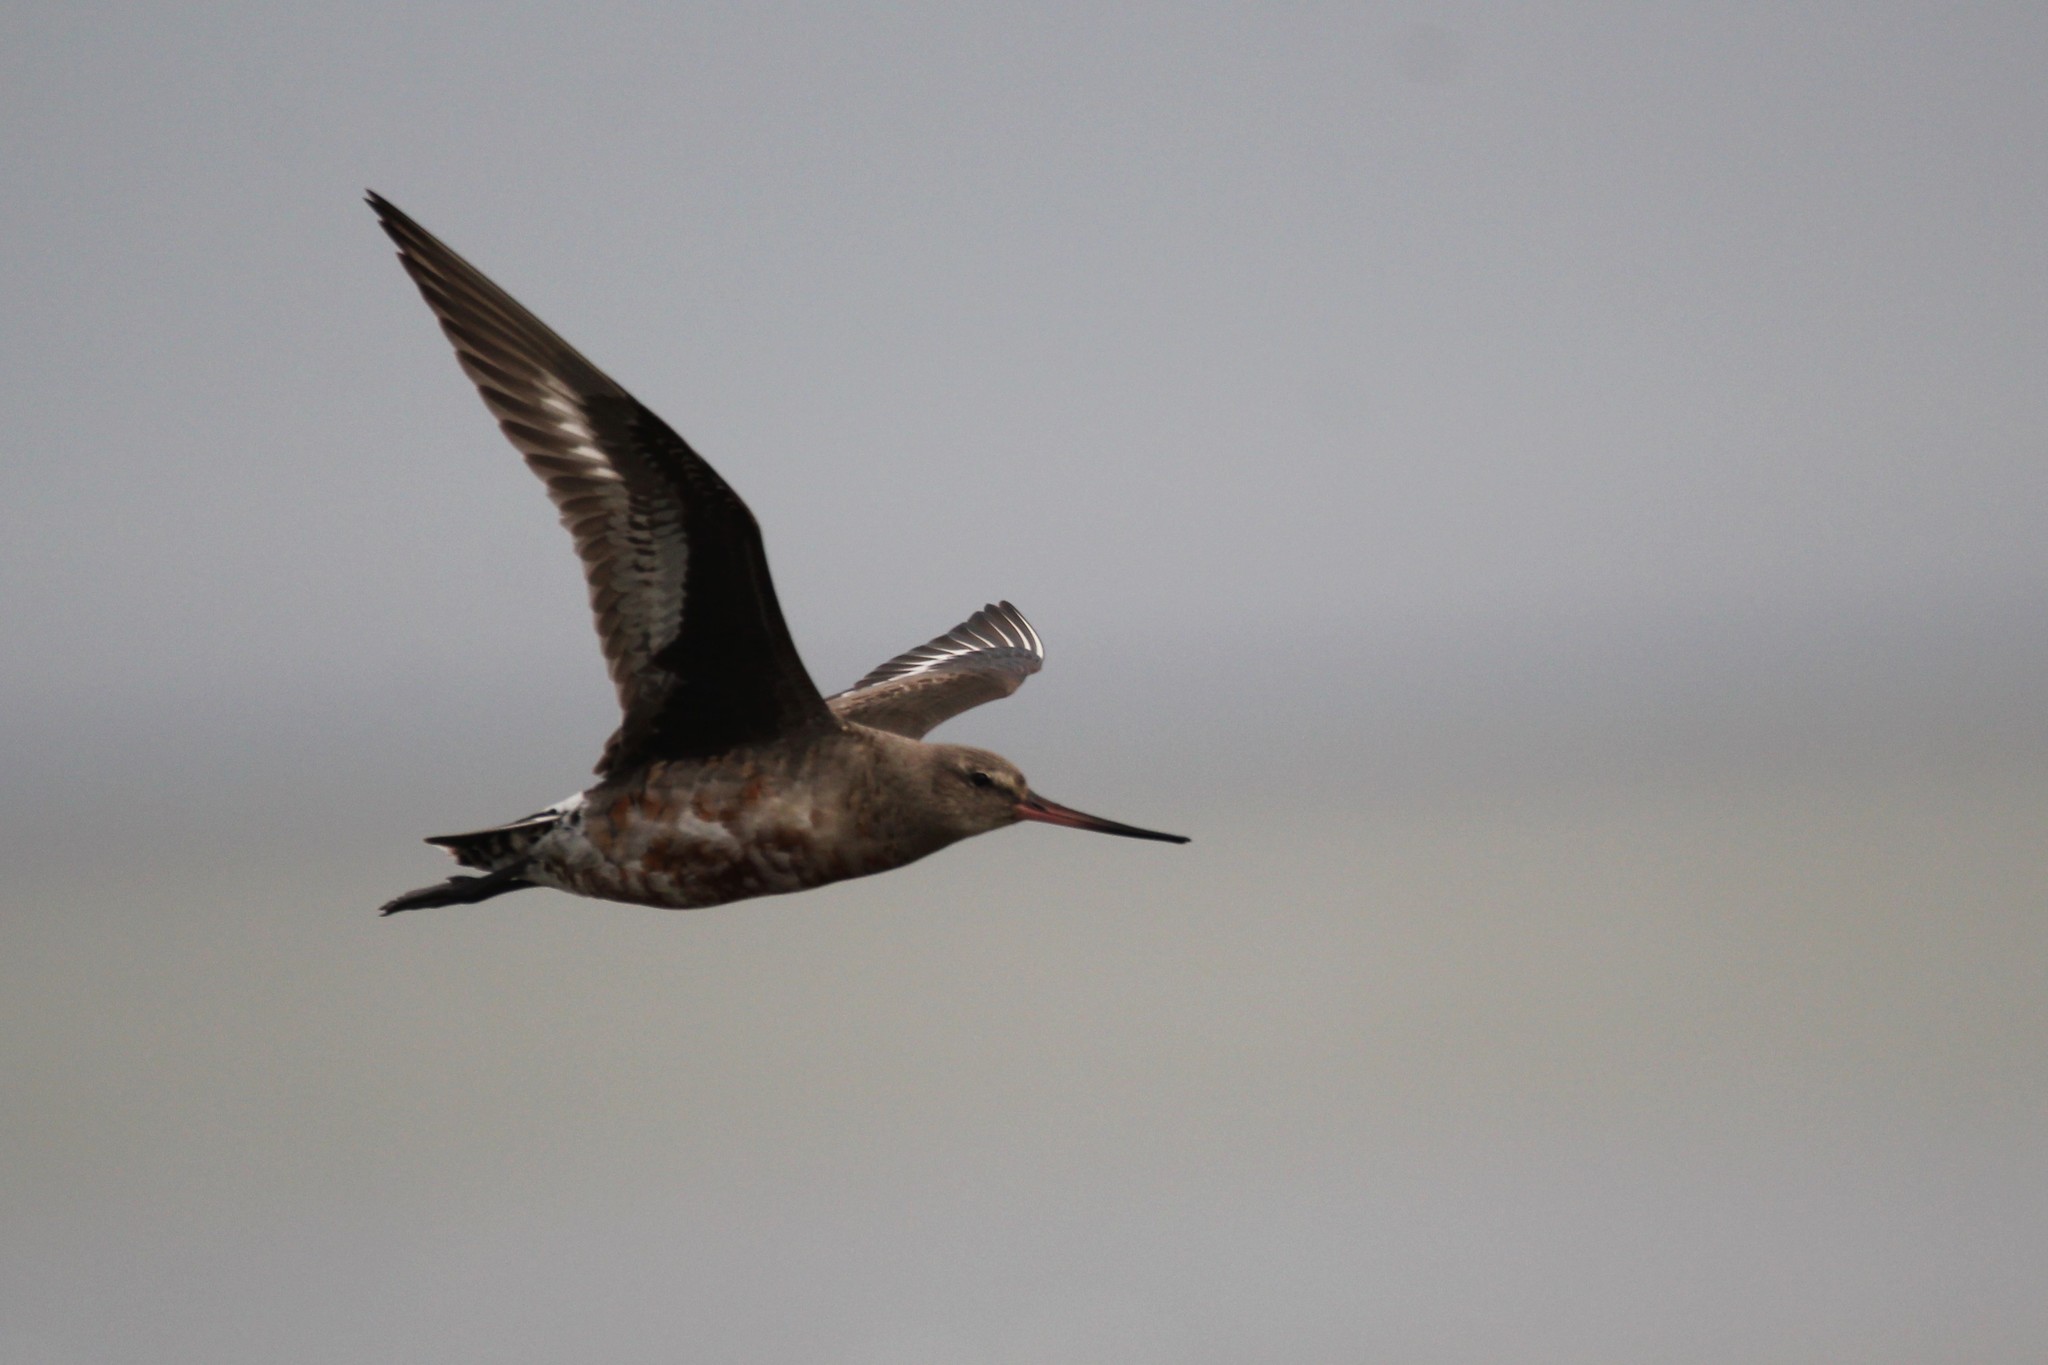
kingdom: Animalia
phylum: Chordata
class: Aves
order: Charadriiformes
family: Scolopacidae
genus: Limosa
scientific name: Limosa haemastica
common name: Hudsonian godwit
